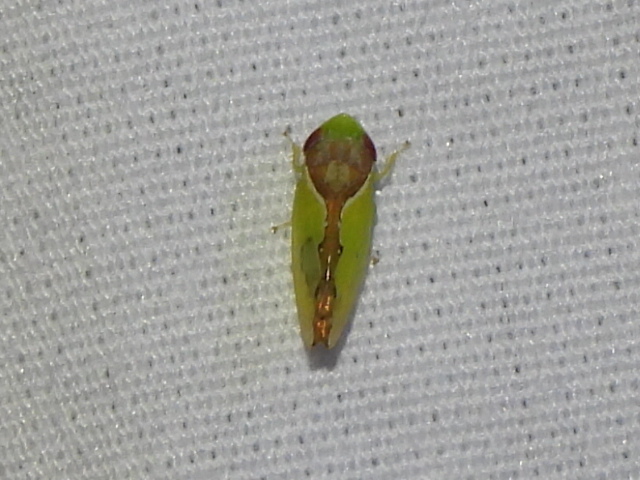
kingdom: Animalia
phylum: Arthropoda
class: Insecta
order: Hemiptera
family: Cicadellidae
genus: Omansobara ing
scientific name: Omansobara ing Omansobara palliolata
